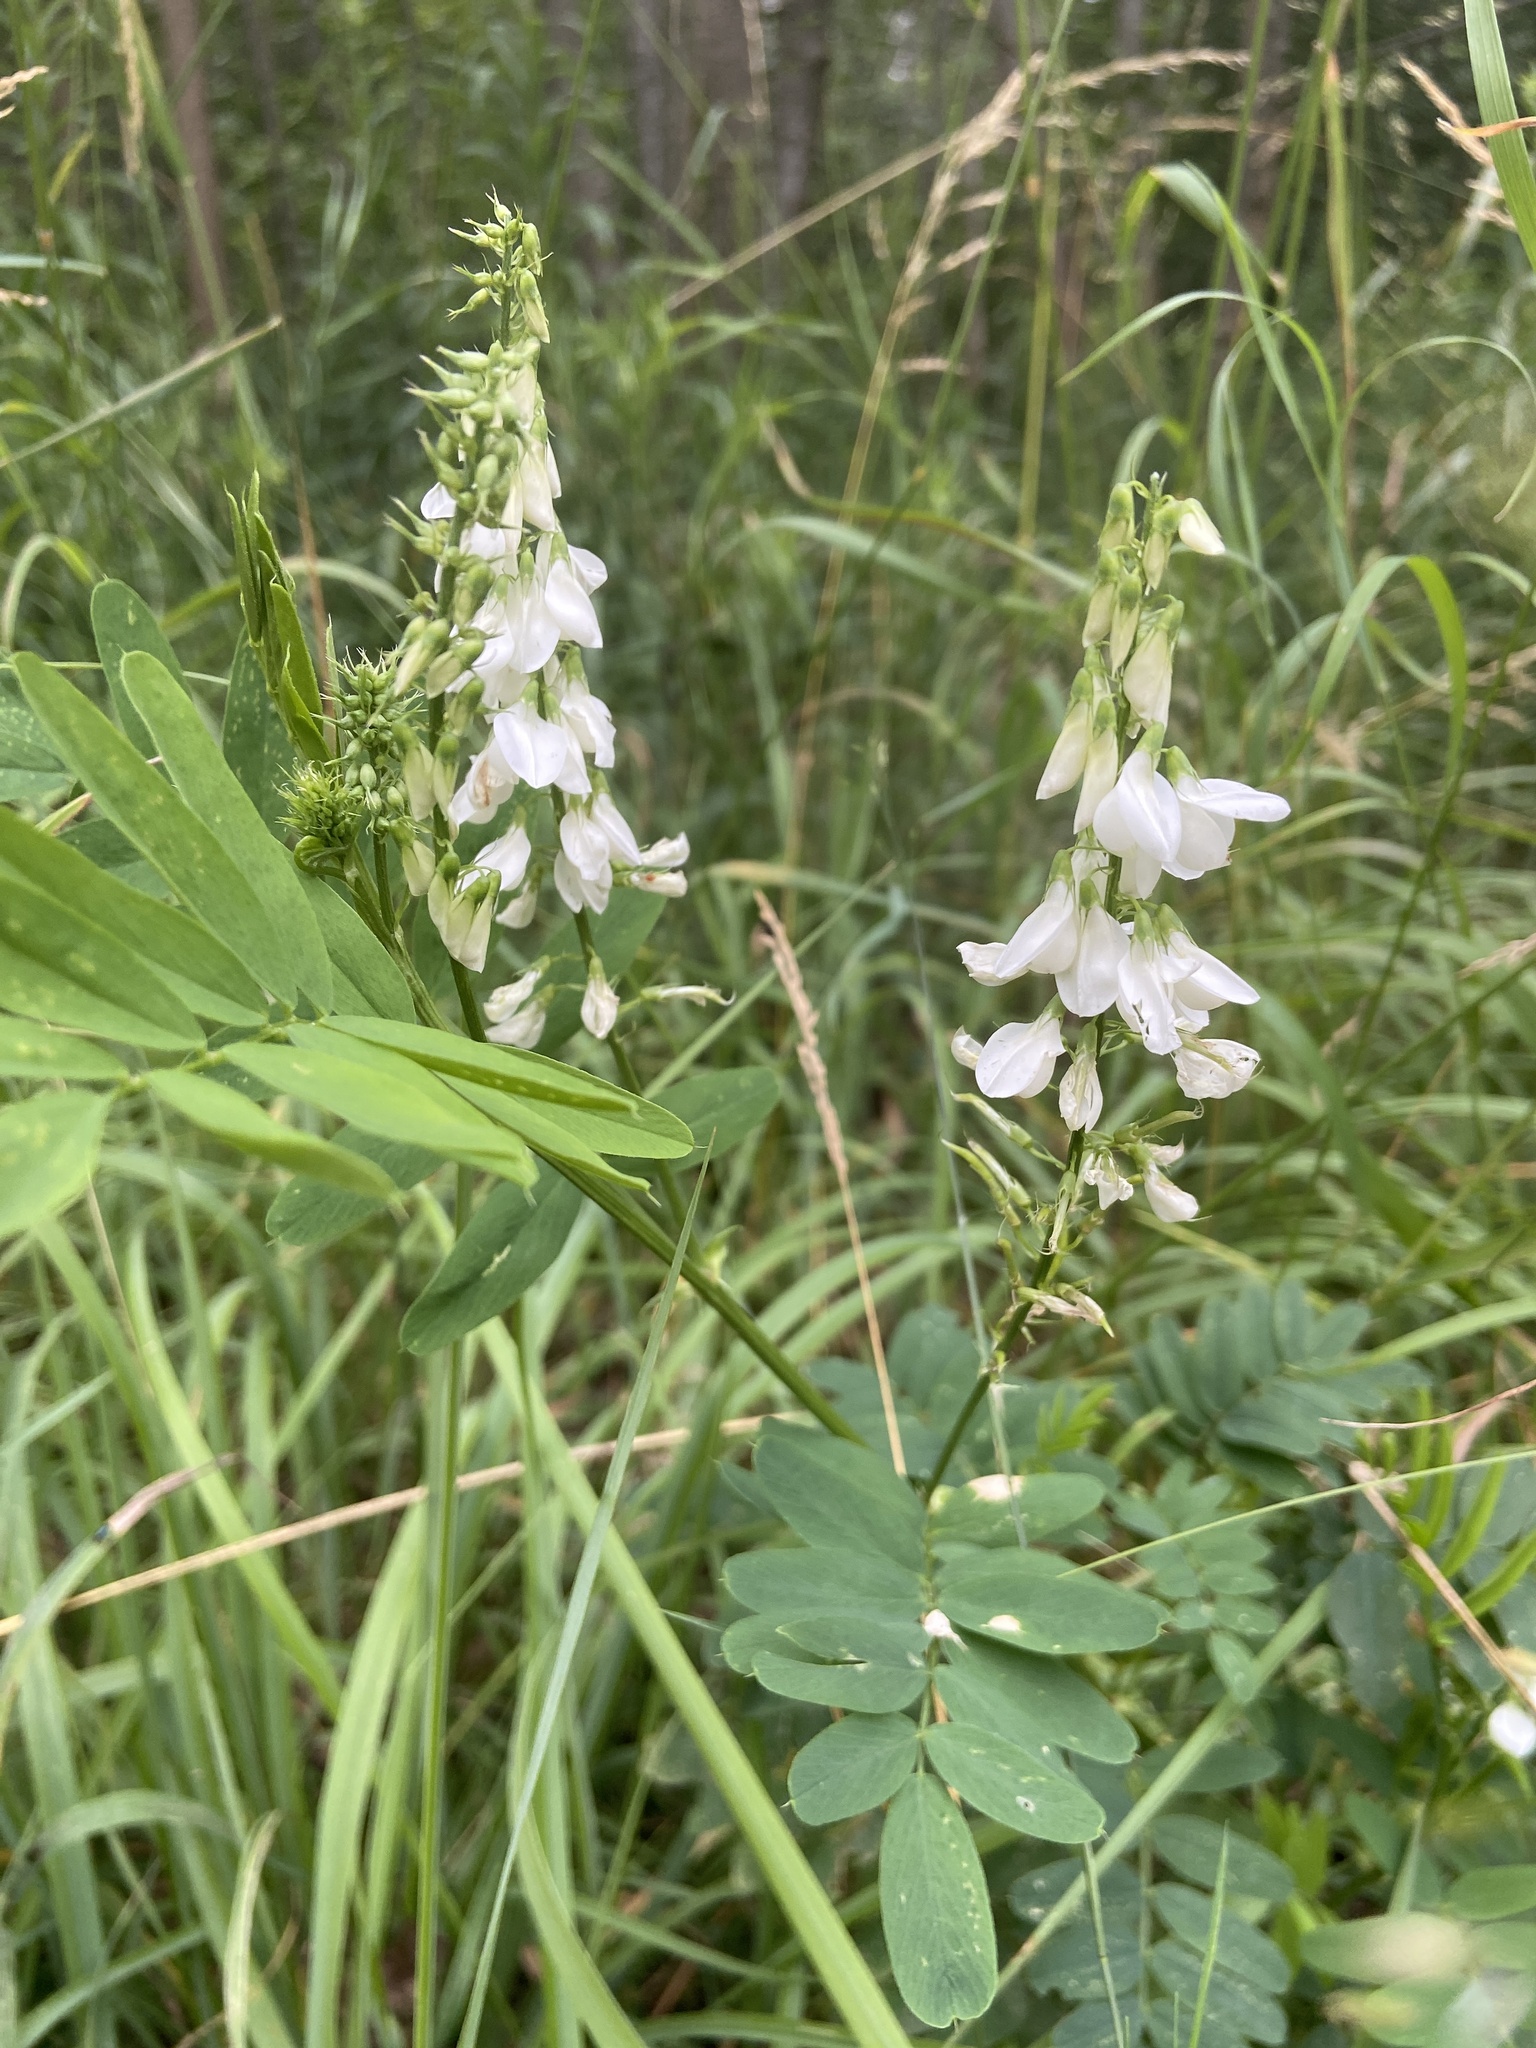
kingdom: Plantae
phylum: Tracheophyta
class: Magnoliopsida
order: Fabales
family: Fabaceae
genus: Galega
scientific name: Galega officinalis
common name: Goat's-rue
